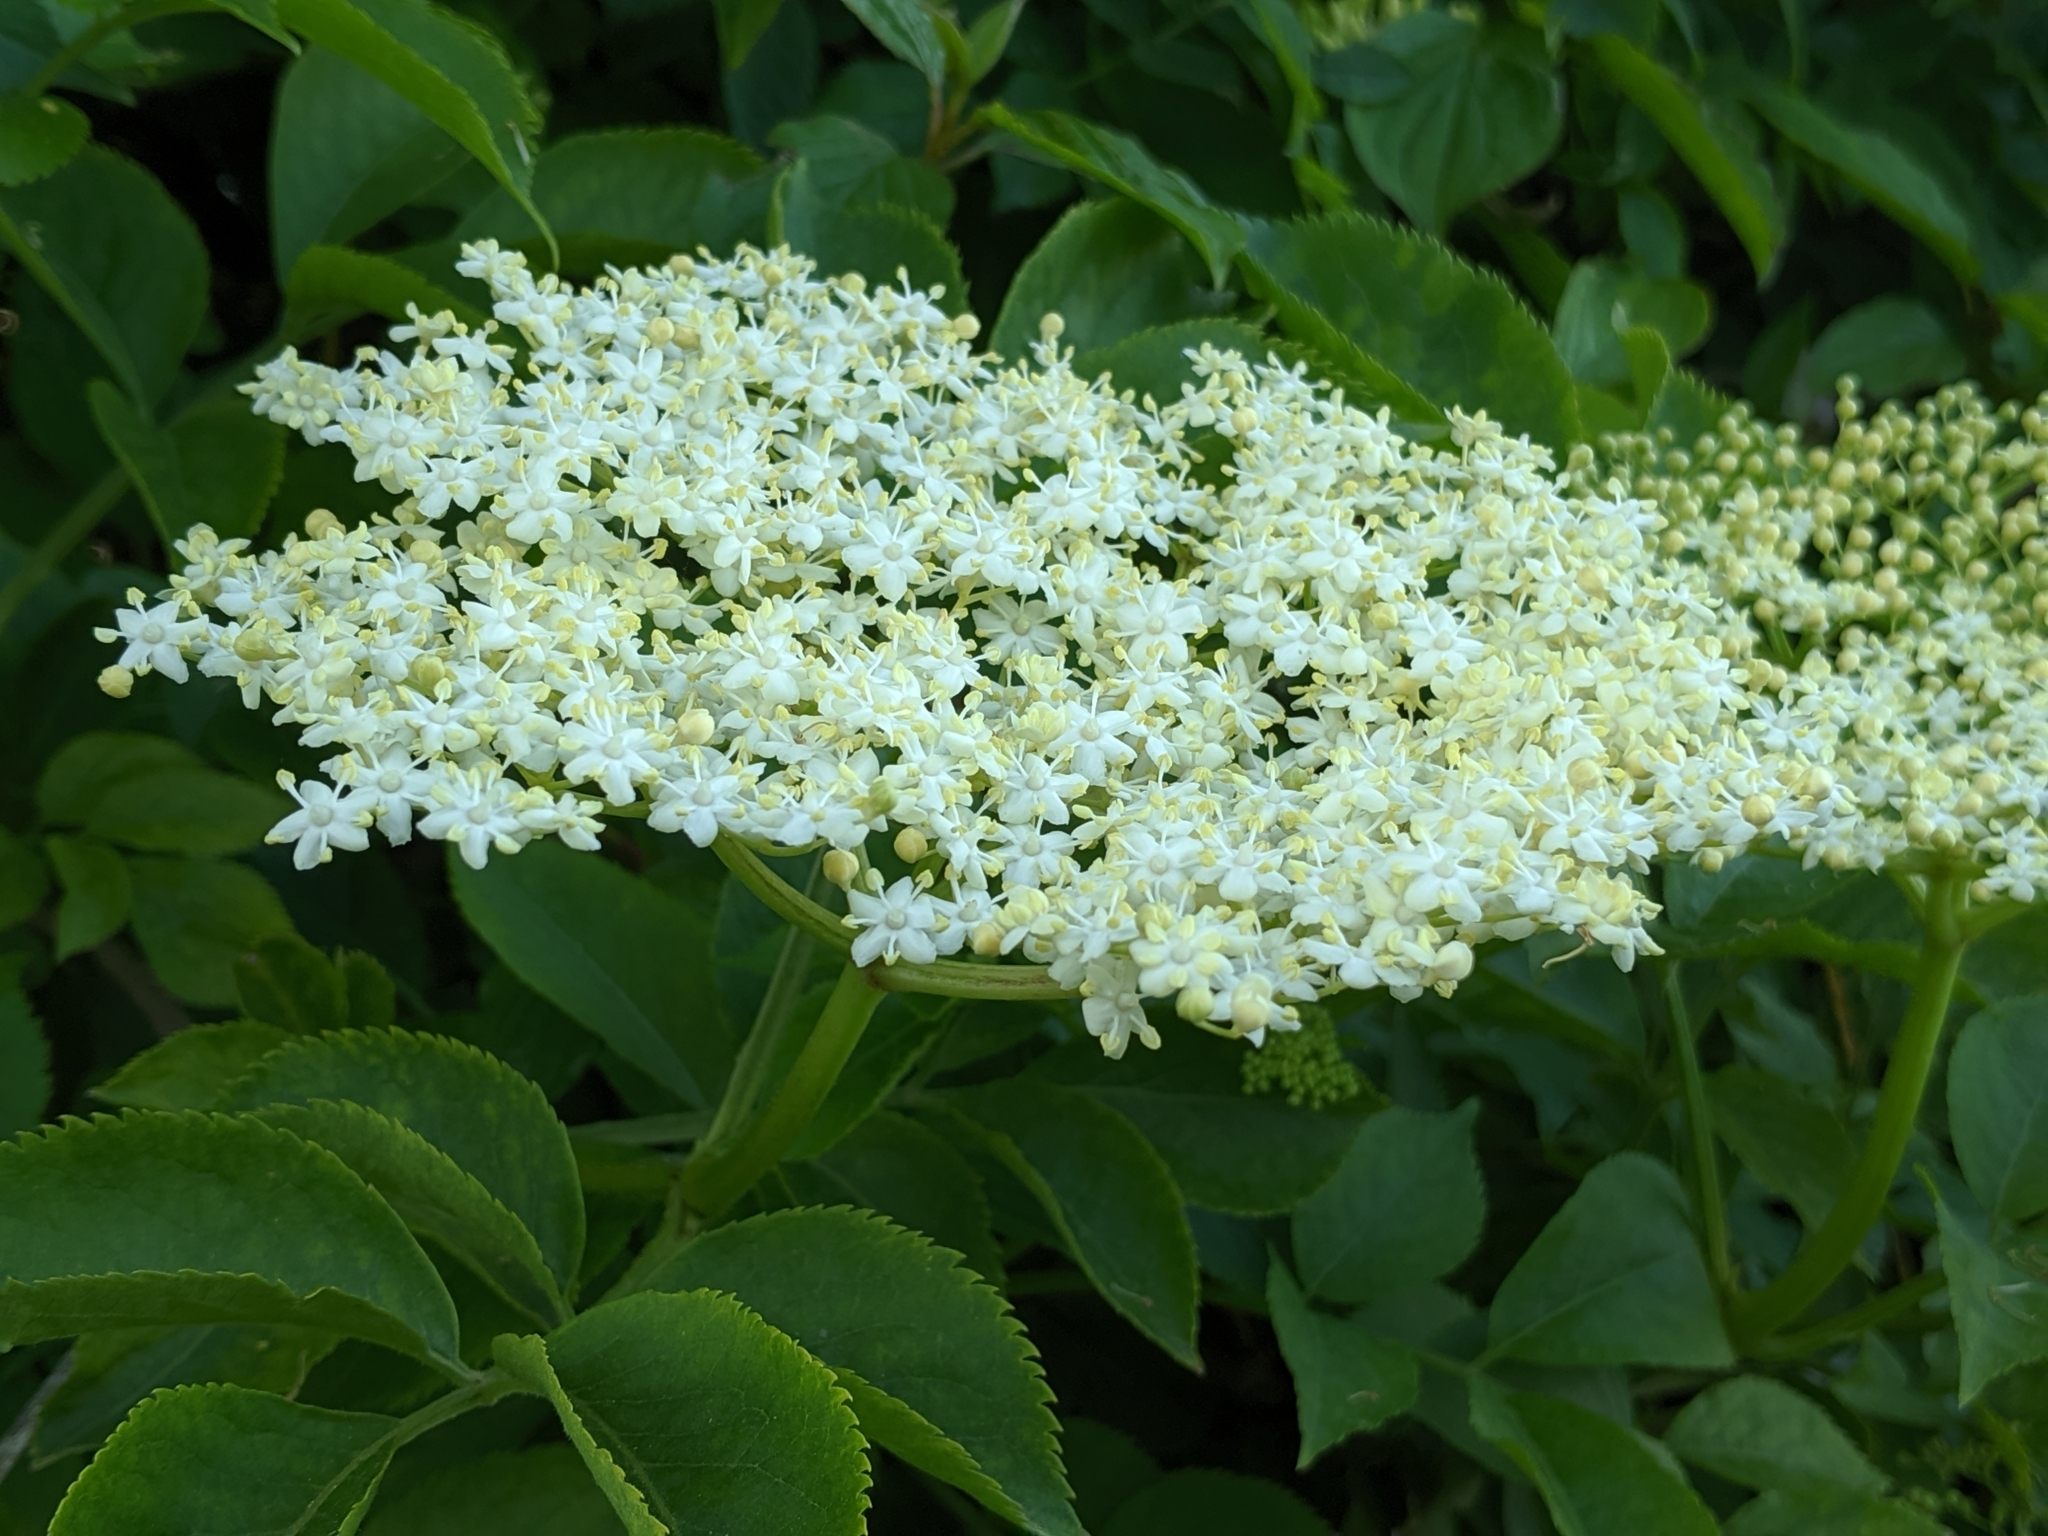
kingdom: Plantae
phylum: Tracheophyta
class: Magnoliopsida
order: Dipsacales
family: Viburnaceae
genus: Sambucus
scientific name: Sambucus nigra
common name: Elder
